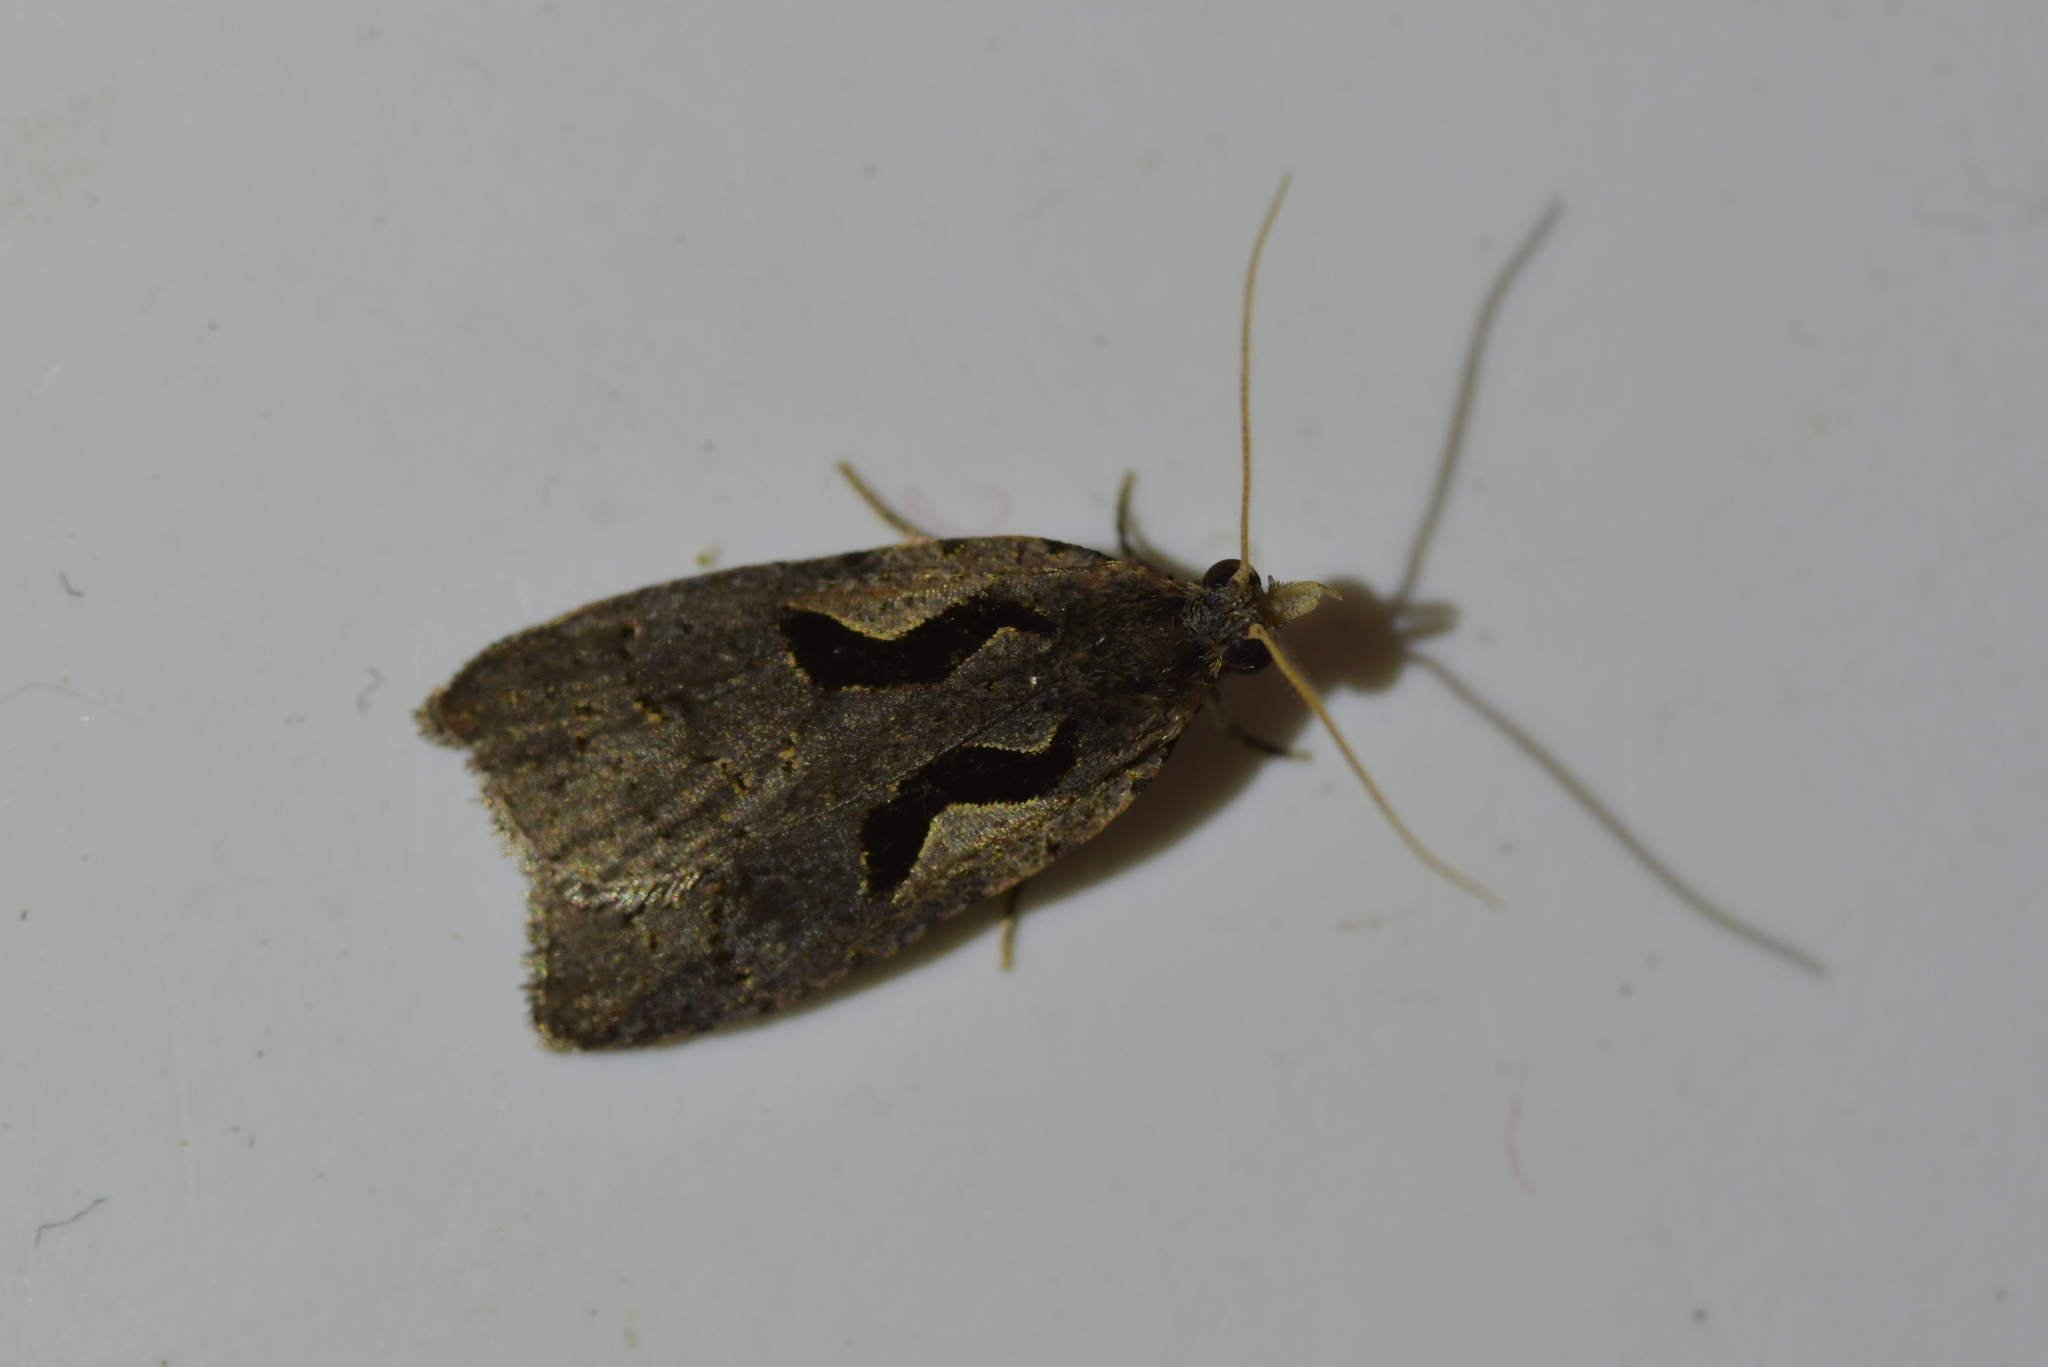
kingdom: Animalia
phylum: Arthropoda
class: Insecta
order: Lepidoptera
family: Tortricidae
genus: Cnephasia
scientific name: Cnephasia jactatana
